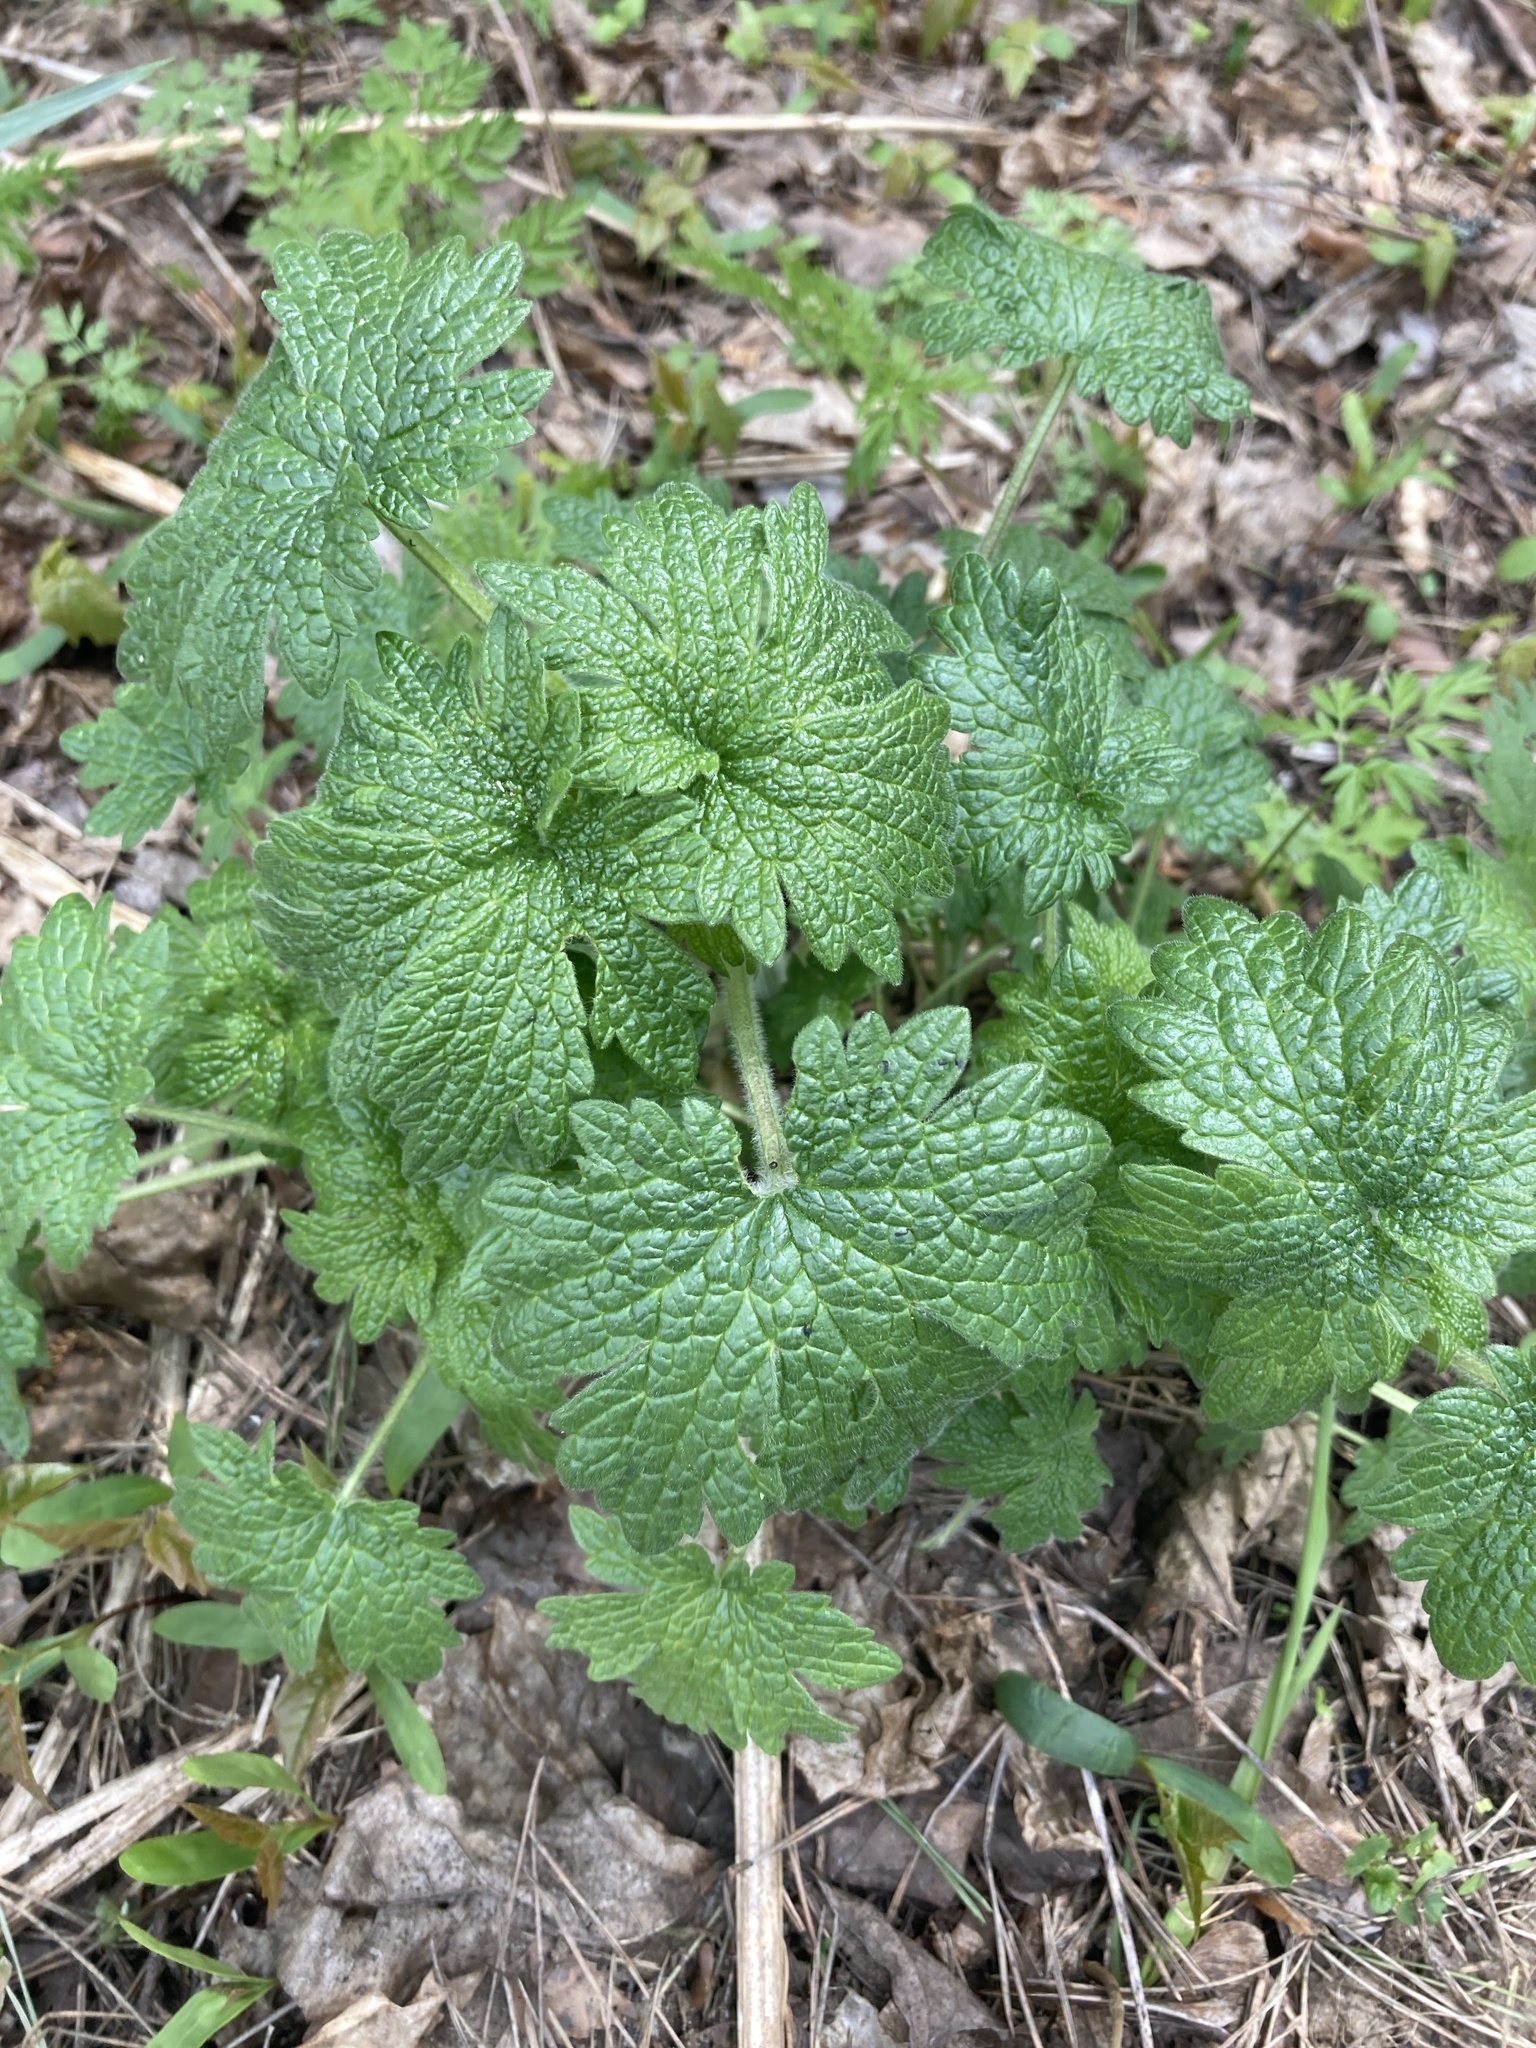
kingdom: Plantae
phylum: Tracheophyta
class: Magnoliopsida
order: Lamiales
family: Lamiaceae
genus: Leonurus
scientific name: Leonurus quinquelobatus
